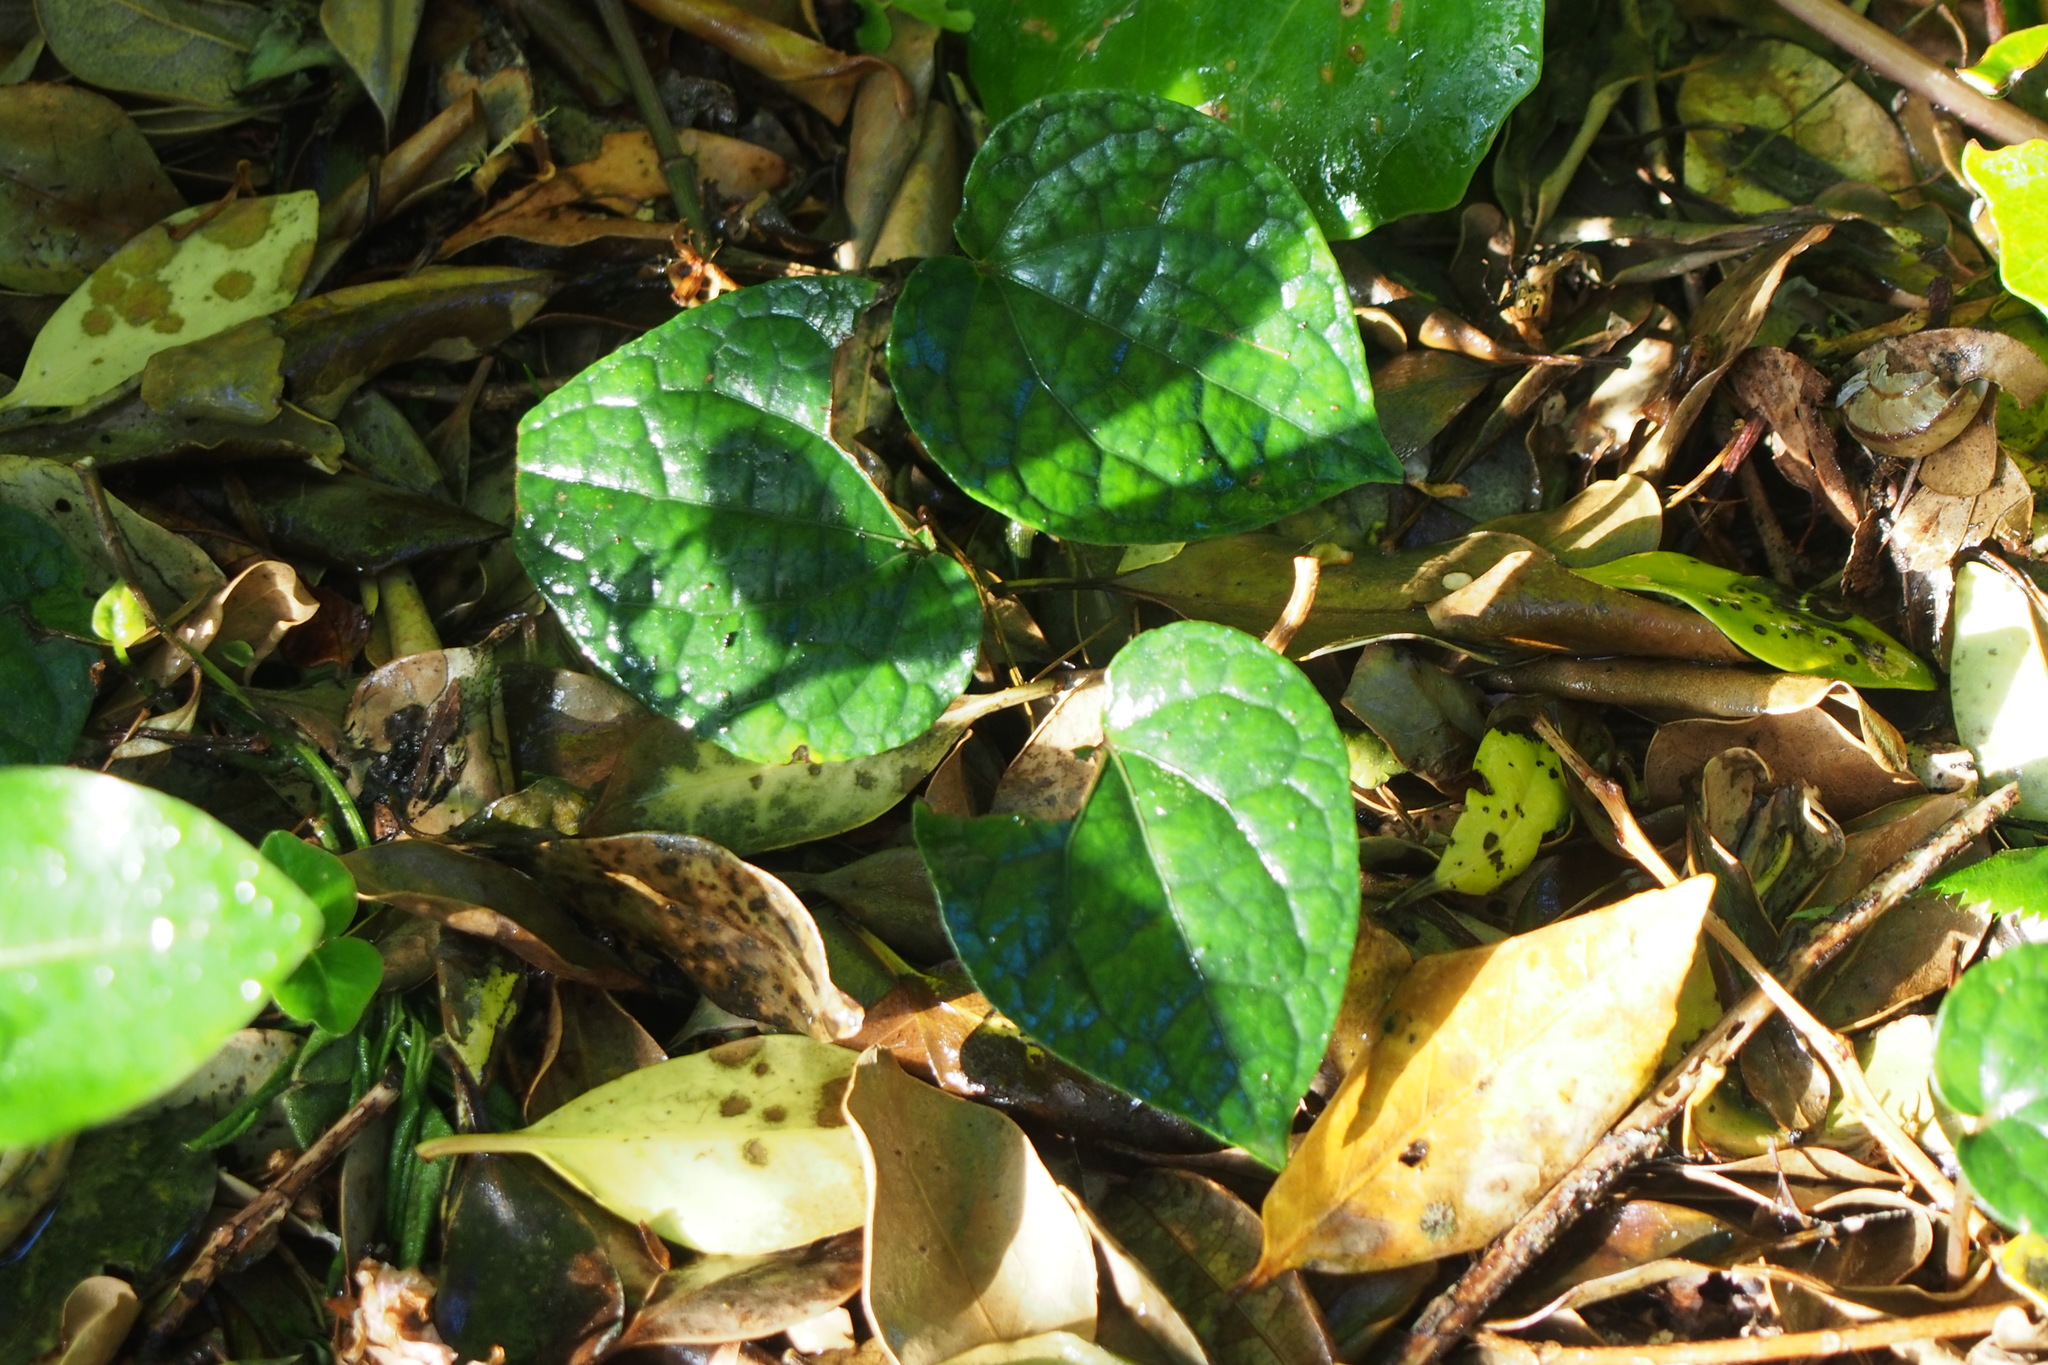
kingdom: Plantae
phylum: Tracheophyta
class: Magnoliopsida
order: Piperales
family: Piperaceae
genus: Piper
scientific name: Piper kadsura
